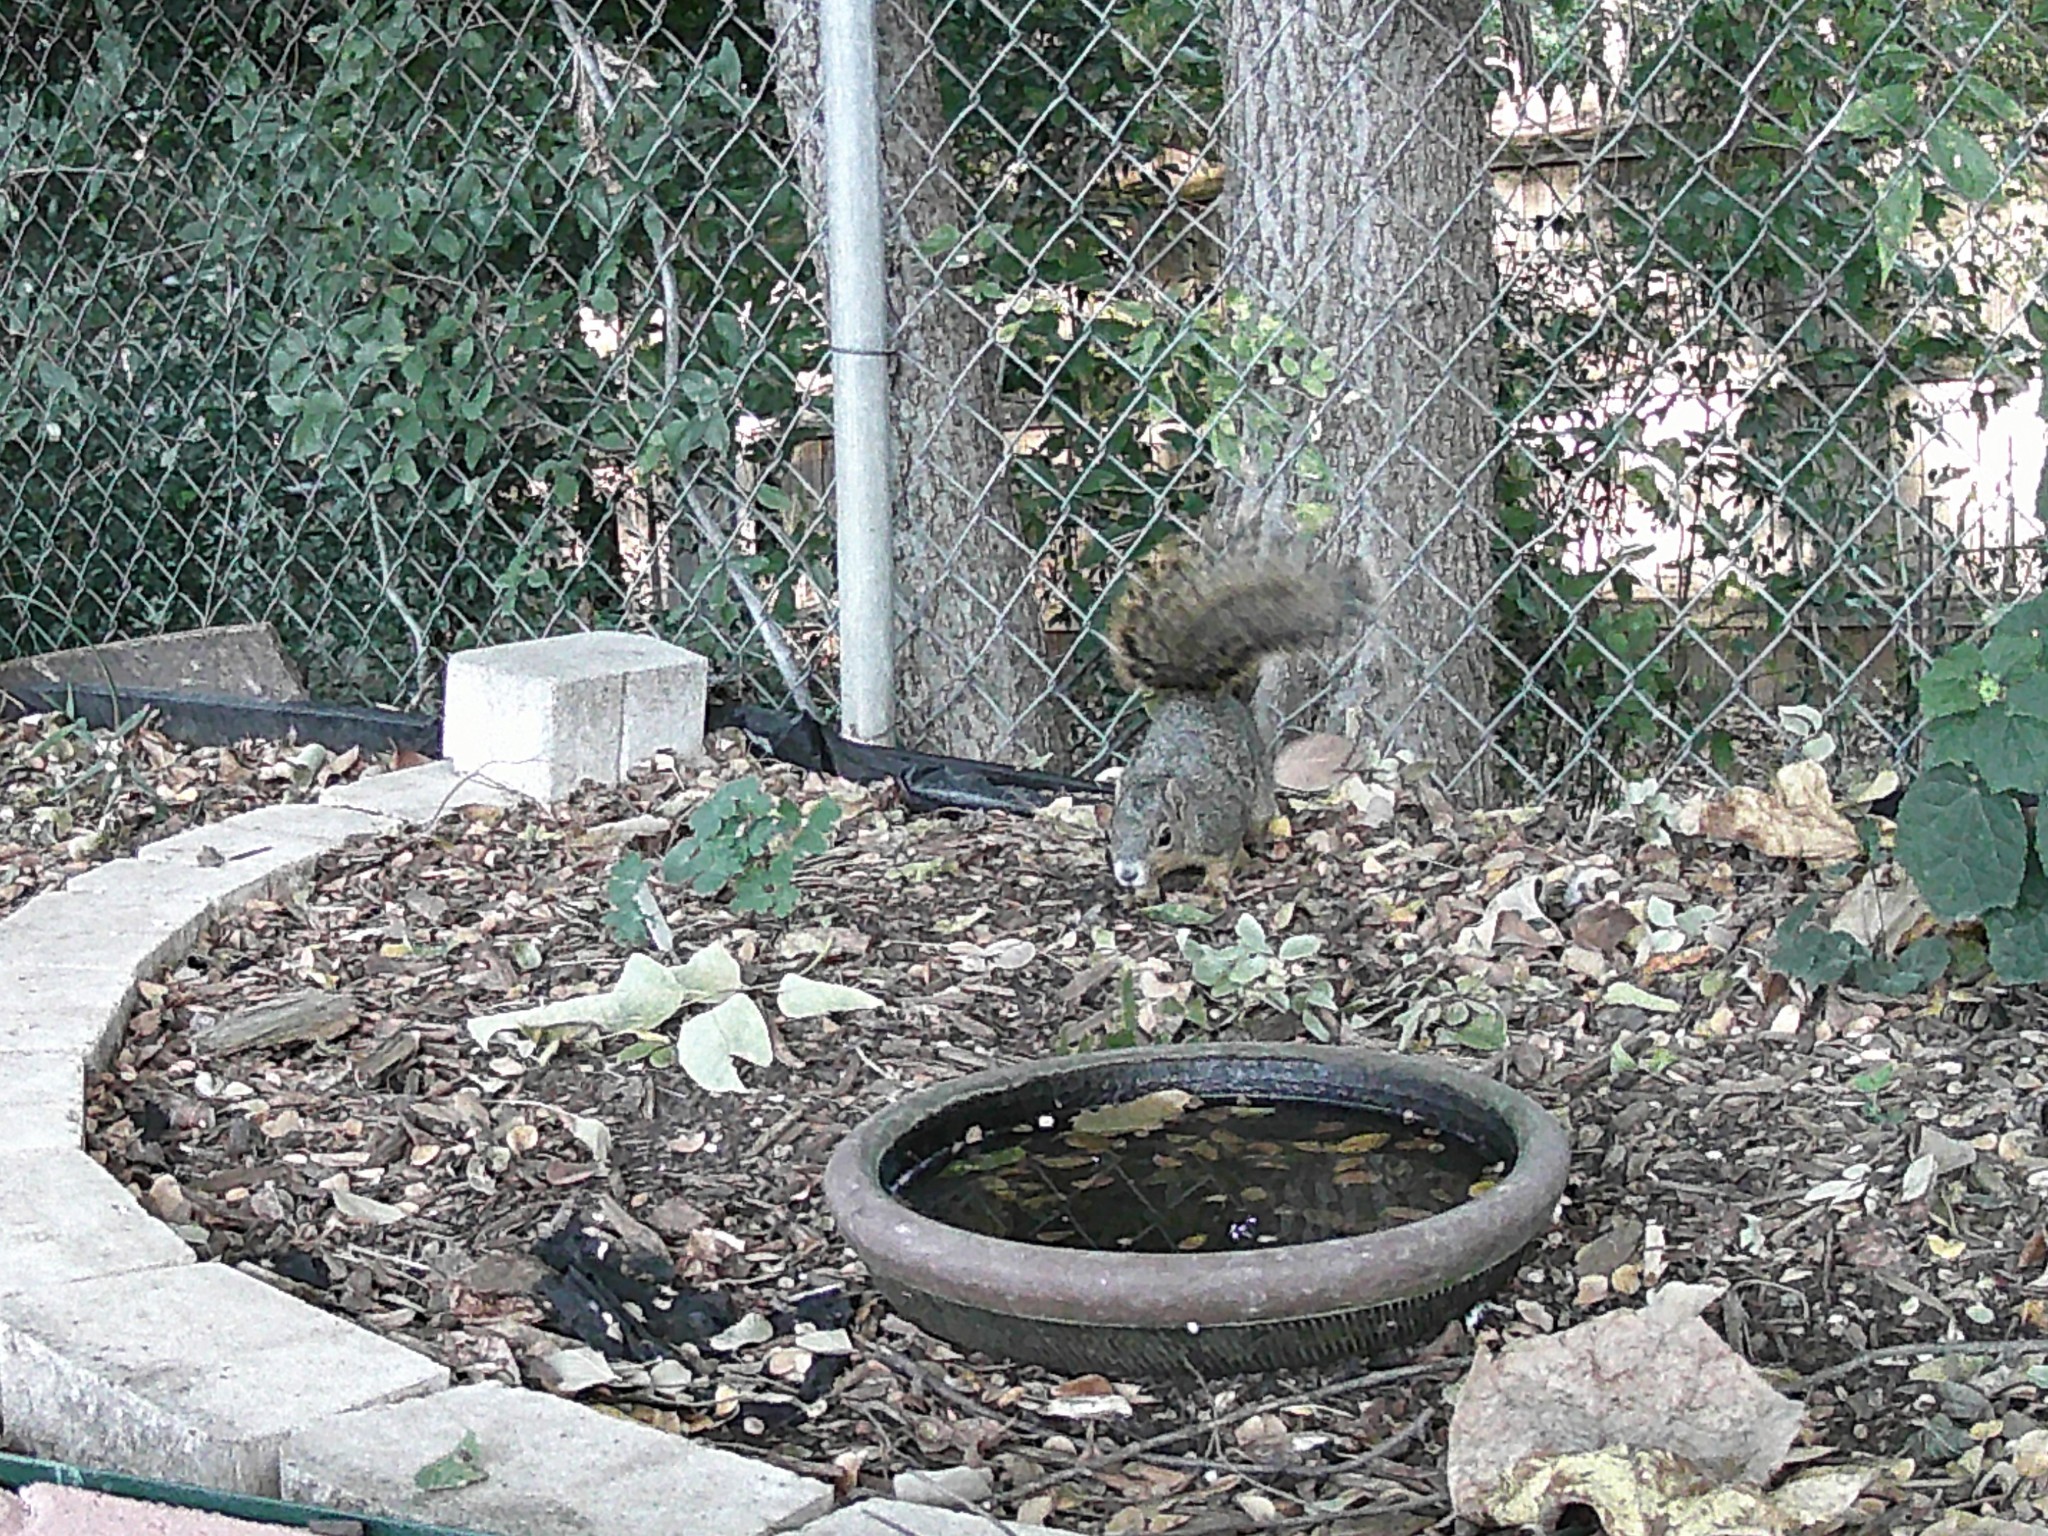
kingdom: Animalia
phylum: Chordata
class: Mammalia
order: Rodentia
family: Sciuridae
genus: Sciurus
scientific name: Sciurus niger
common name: Fox squirrel
